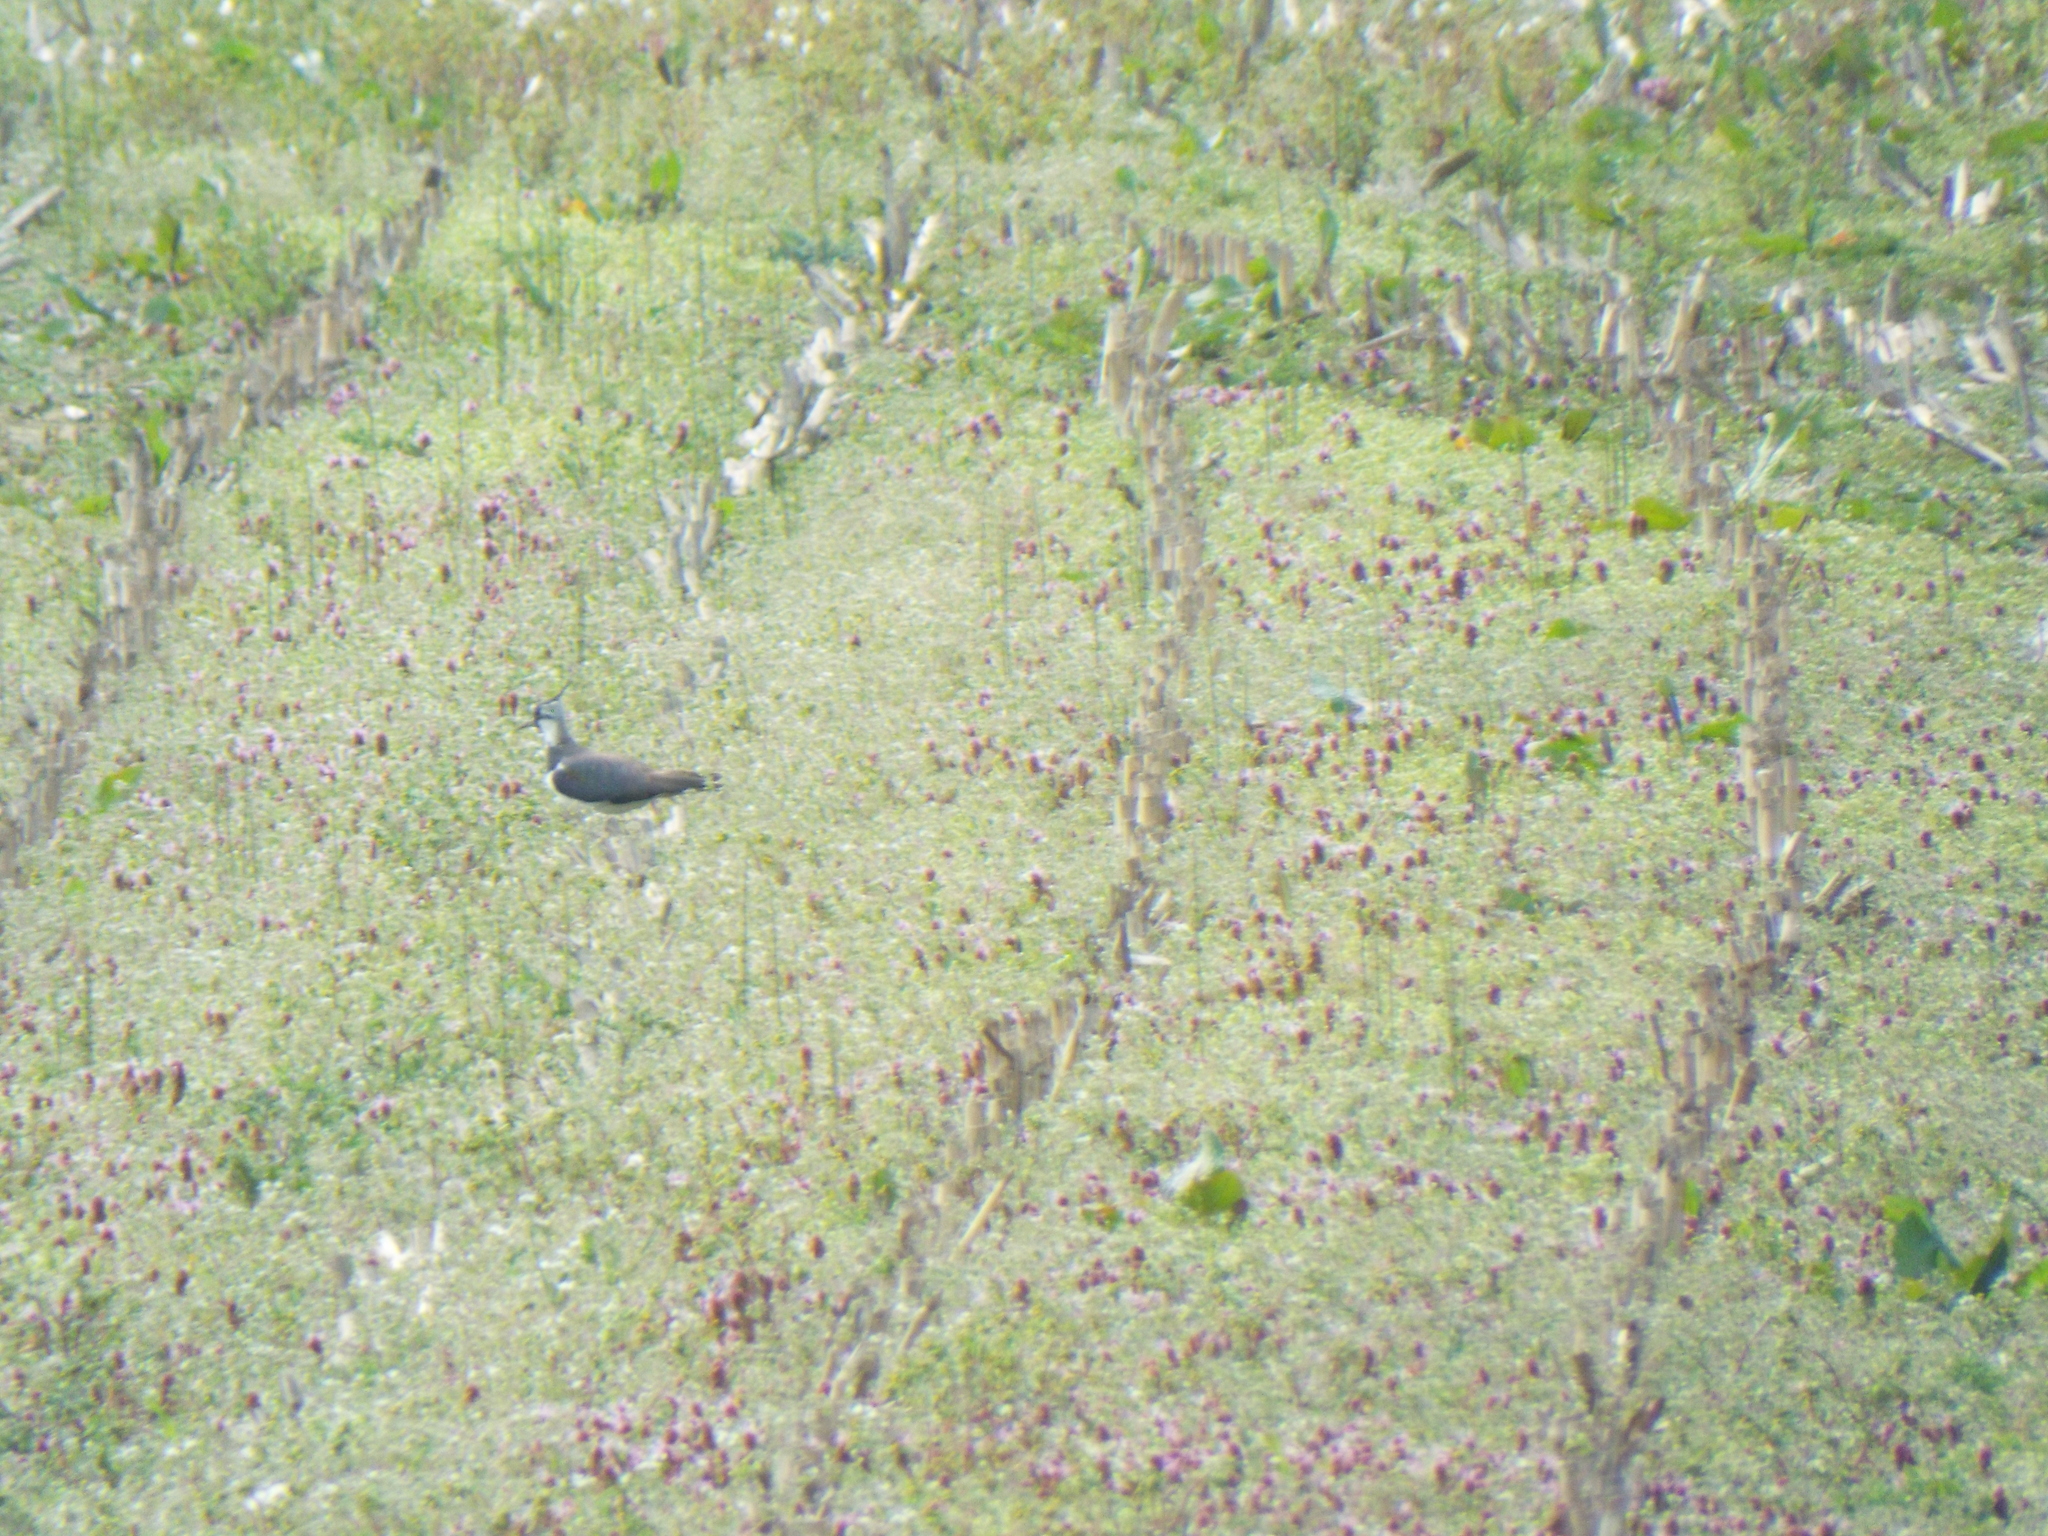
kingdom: Animalia
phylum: Chordata
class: Aves
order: Charadriiformes
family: Charadriidae
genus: Vanellus
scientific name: Vanellus vanellus
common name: Northern lapwing
